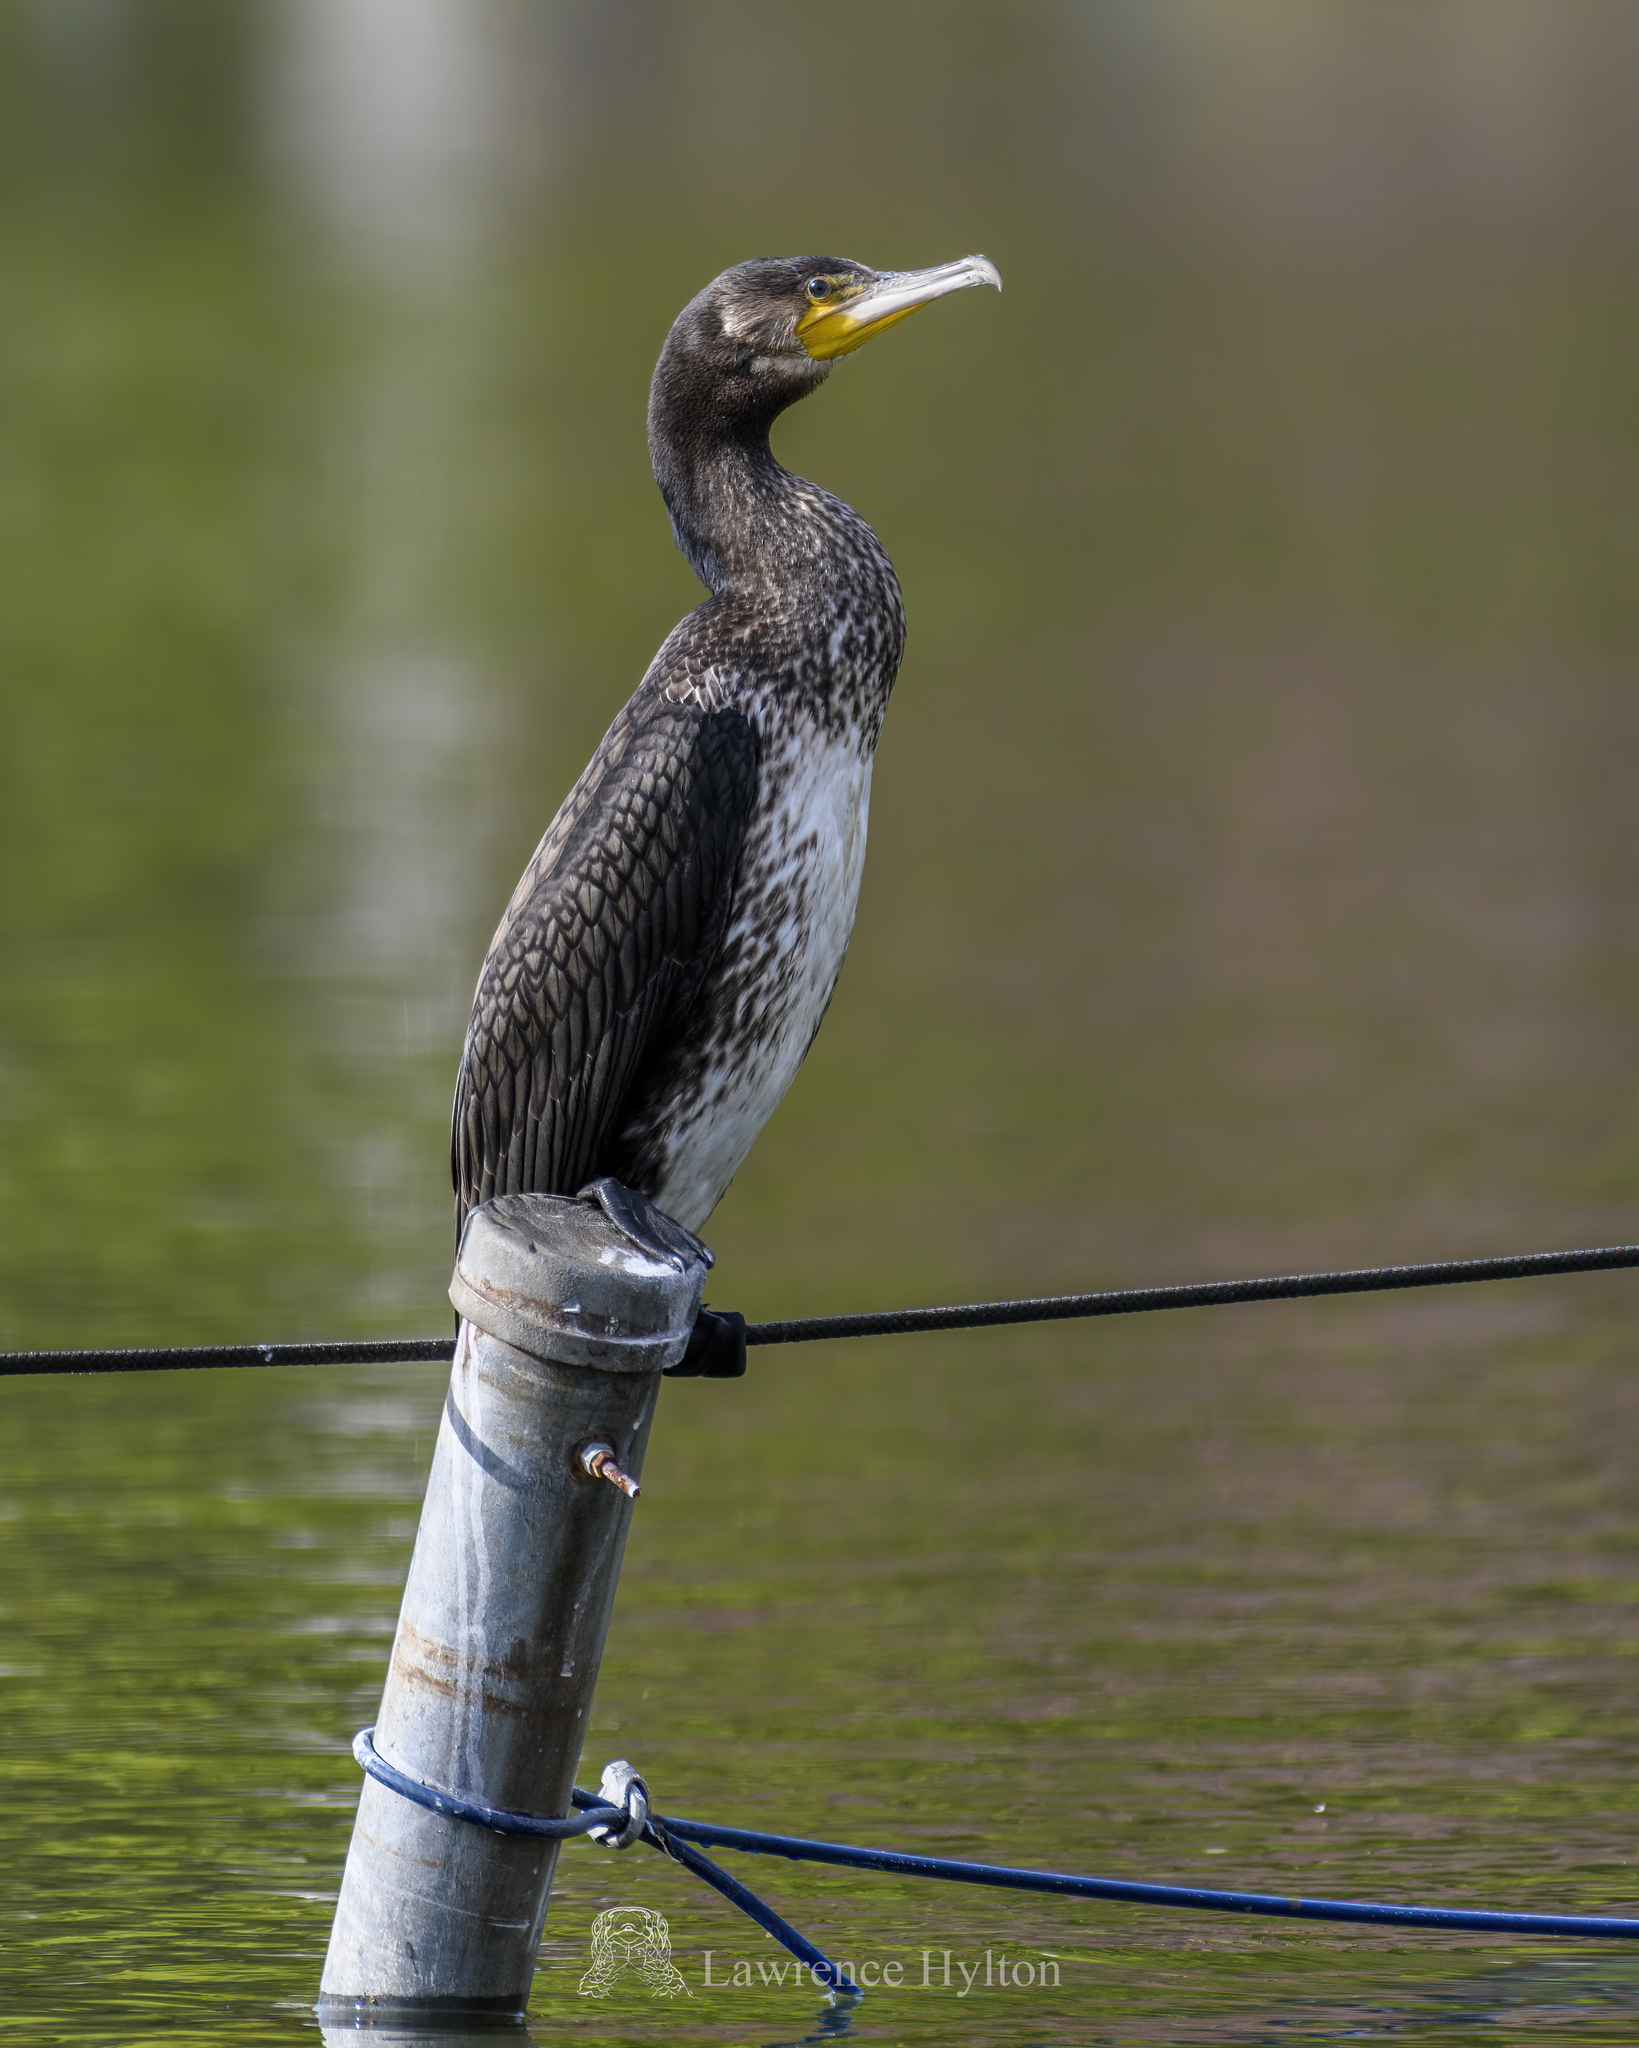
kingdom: Animalia
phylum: Chordata
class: Aves
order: Suliformes
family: Phalacrocoracidae
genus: Phalacrocorax
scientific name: Phalacrocorax carbo
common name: Great cormorant
